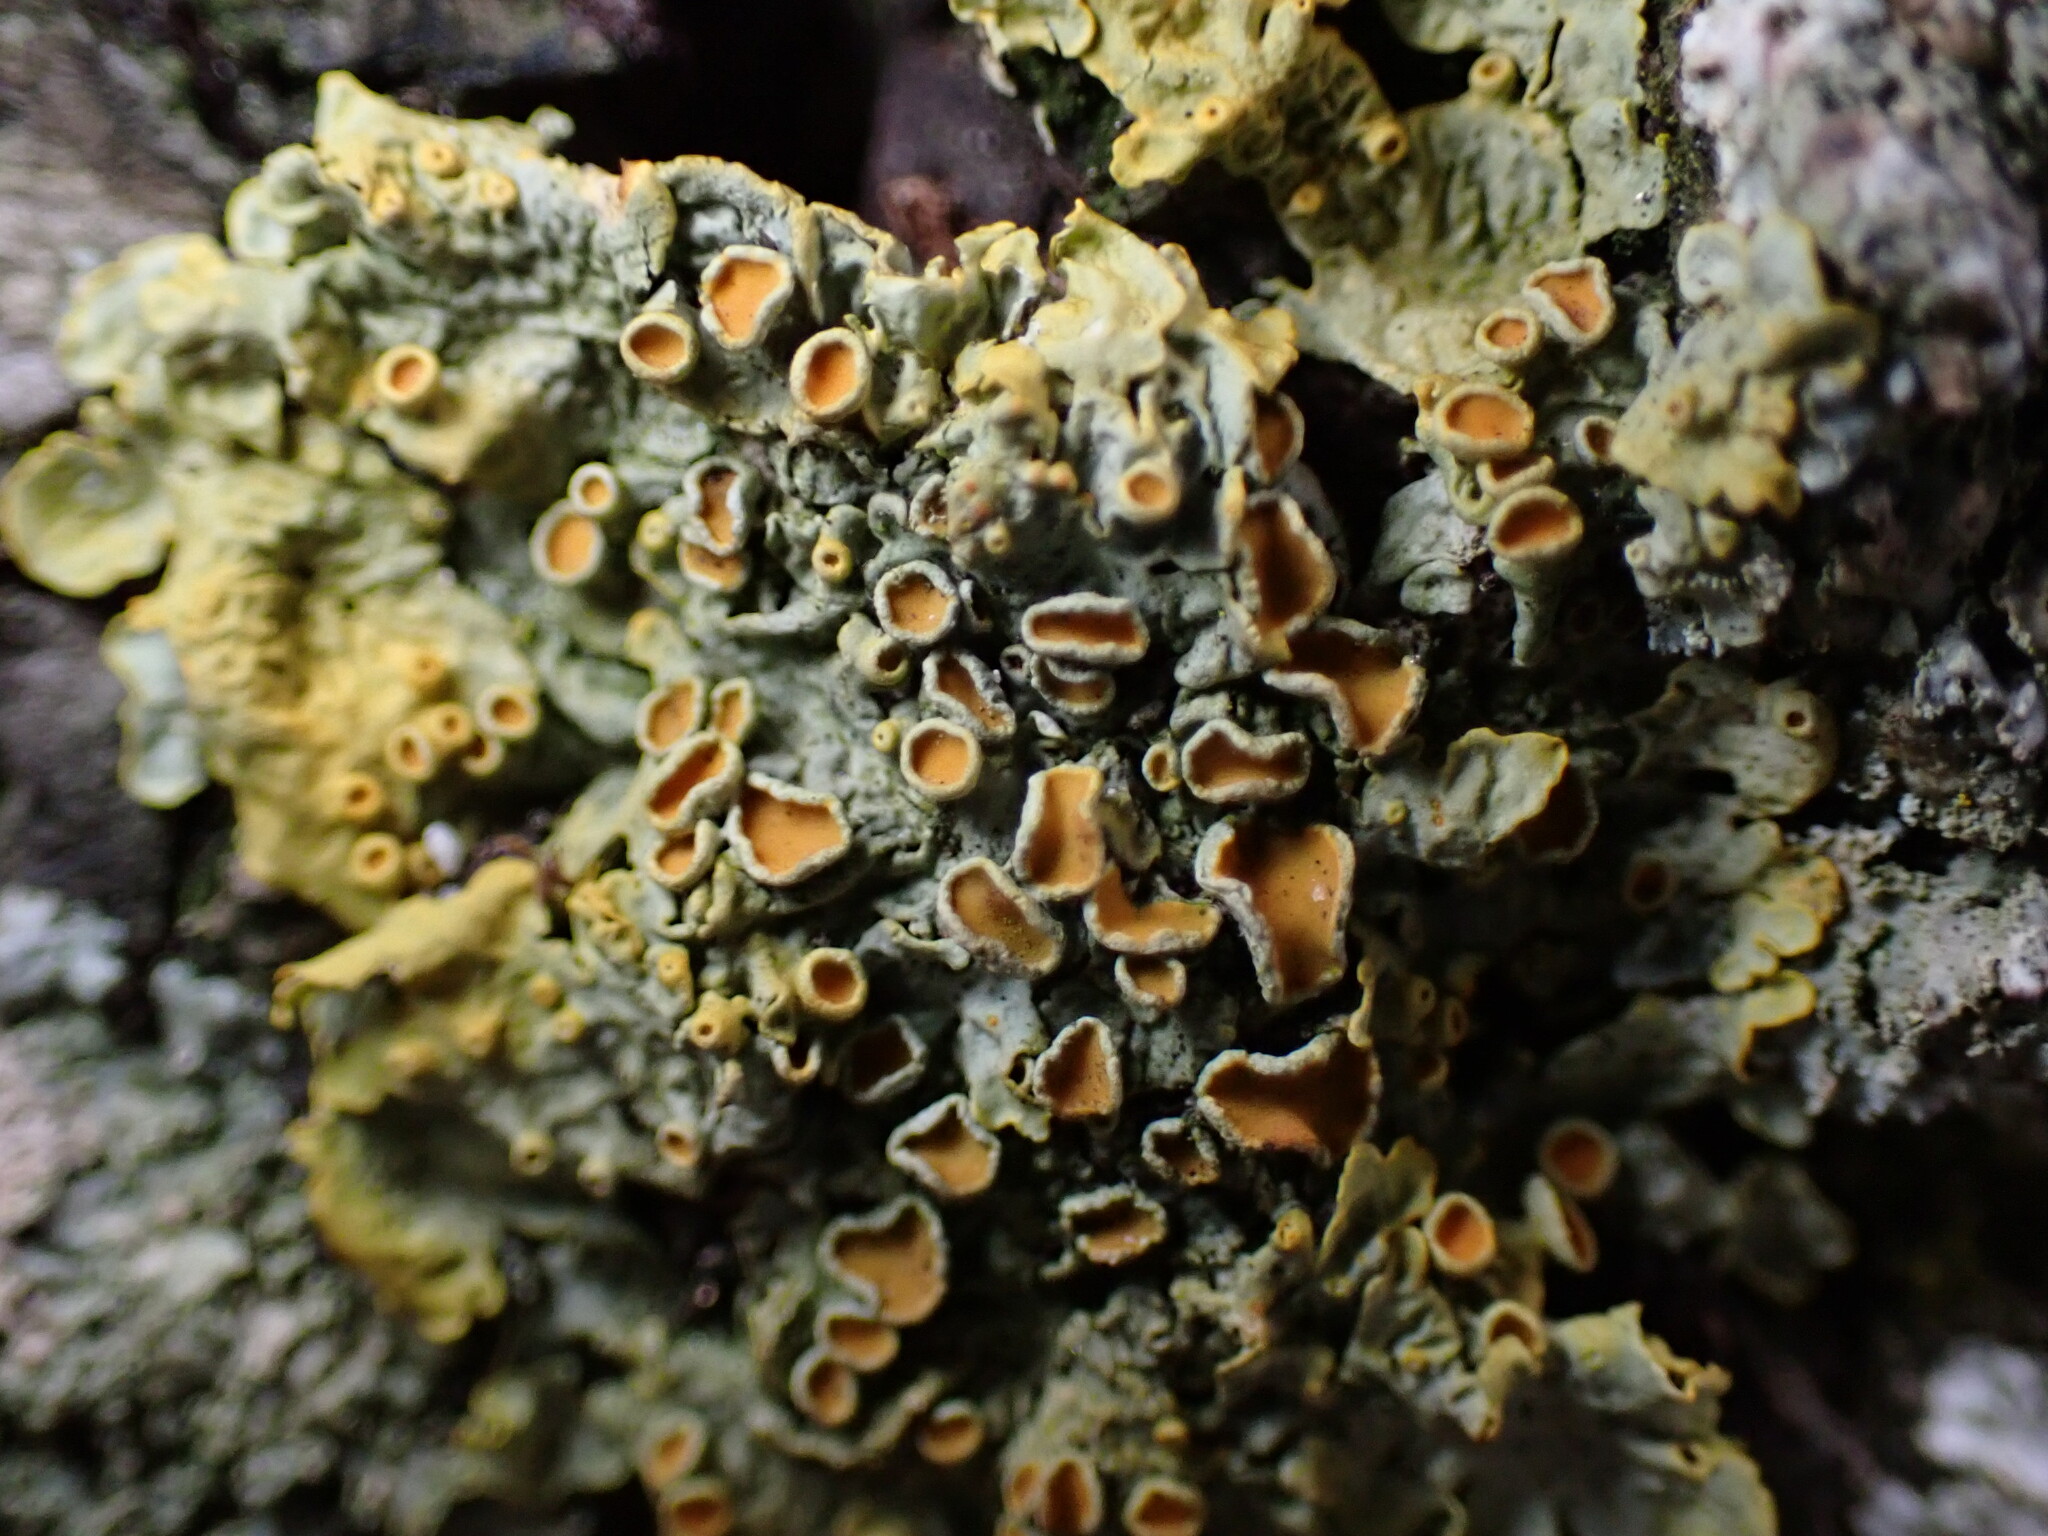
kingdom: Fungi
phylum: Ascomycota
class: Lecanoromycetes
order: Teloschistales
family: Teloschistaceae
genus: Xanthoria
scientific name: Xanthoria parietina
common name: Common orange lichen
